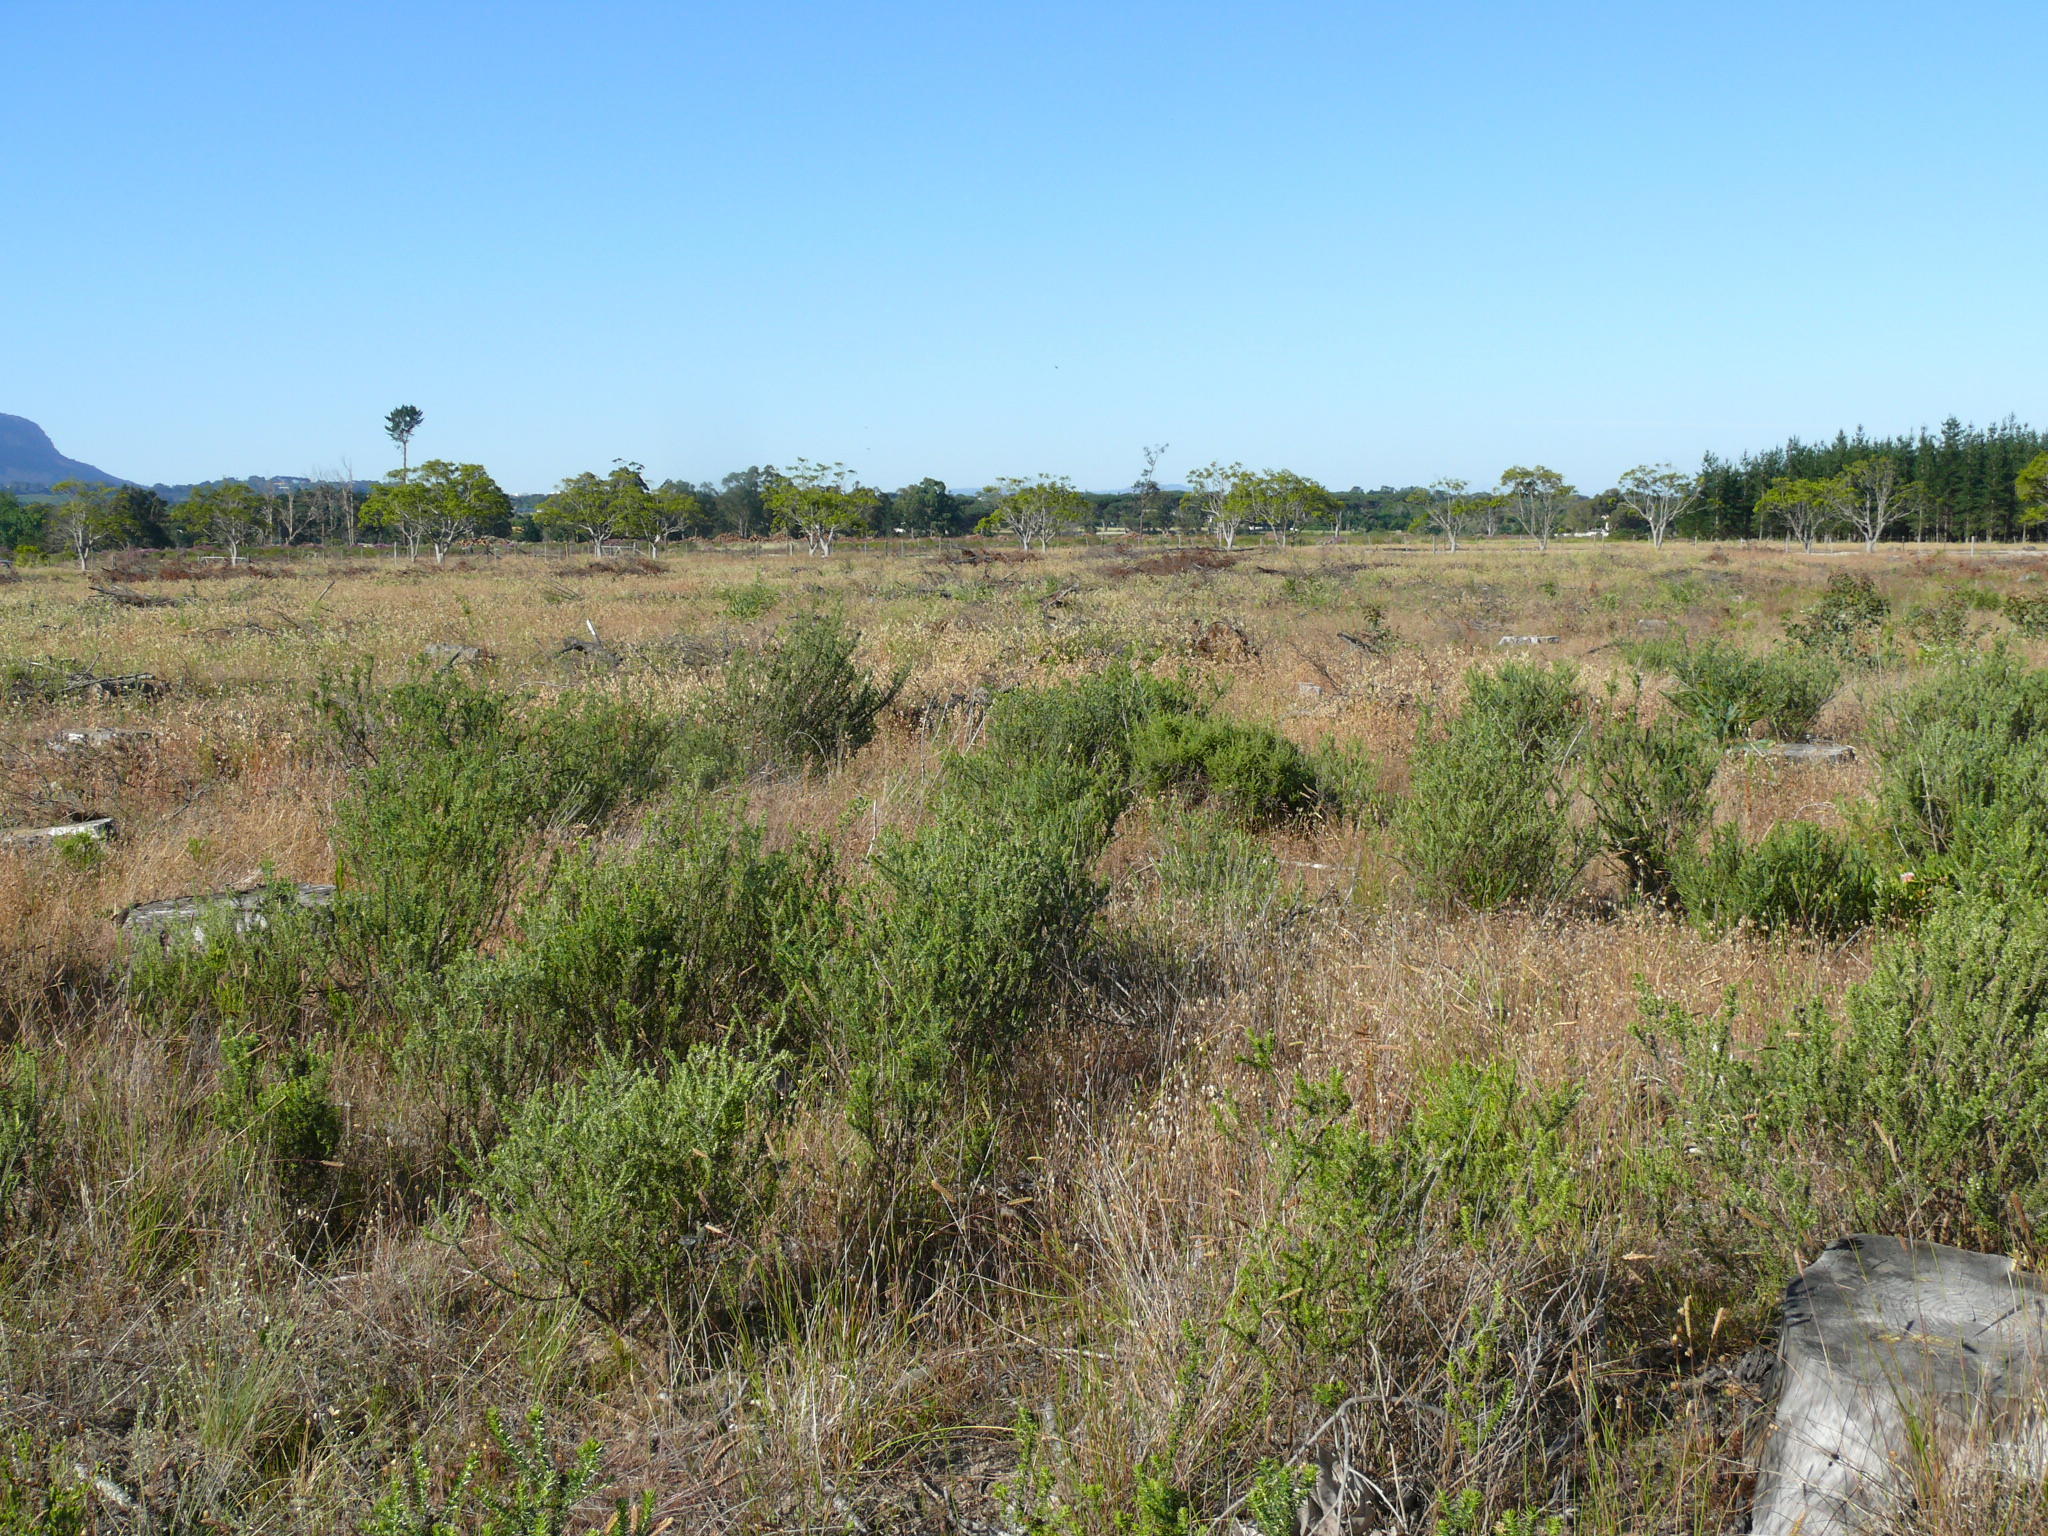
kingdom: Plantae
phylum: Tracheophyta
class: Magnoliopsida
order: Asterales
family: Asteraceae
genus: Metalasia
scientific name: Metalasia densa
